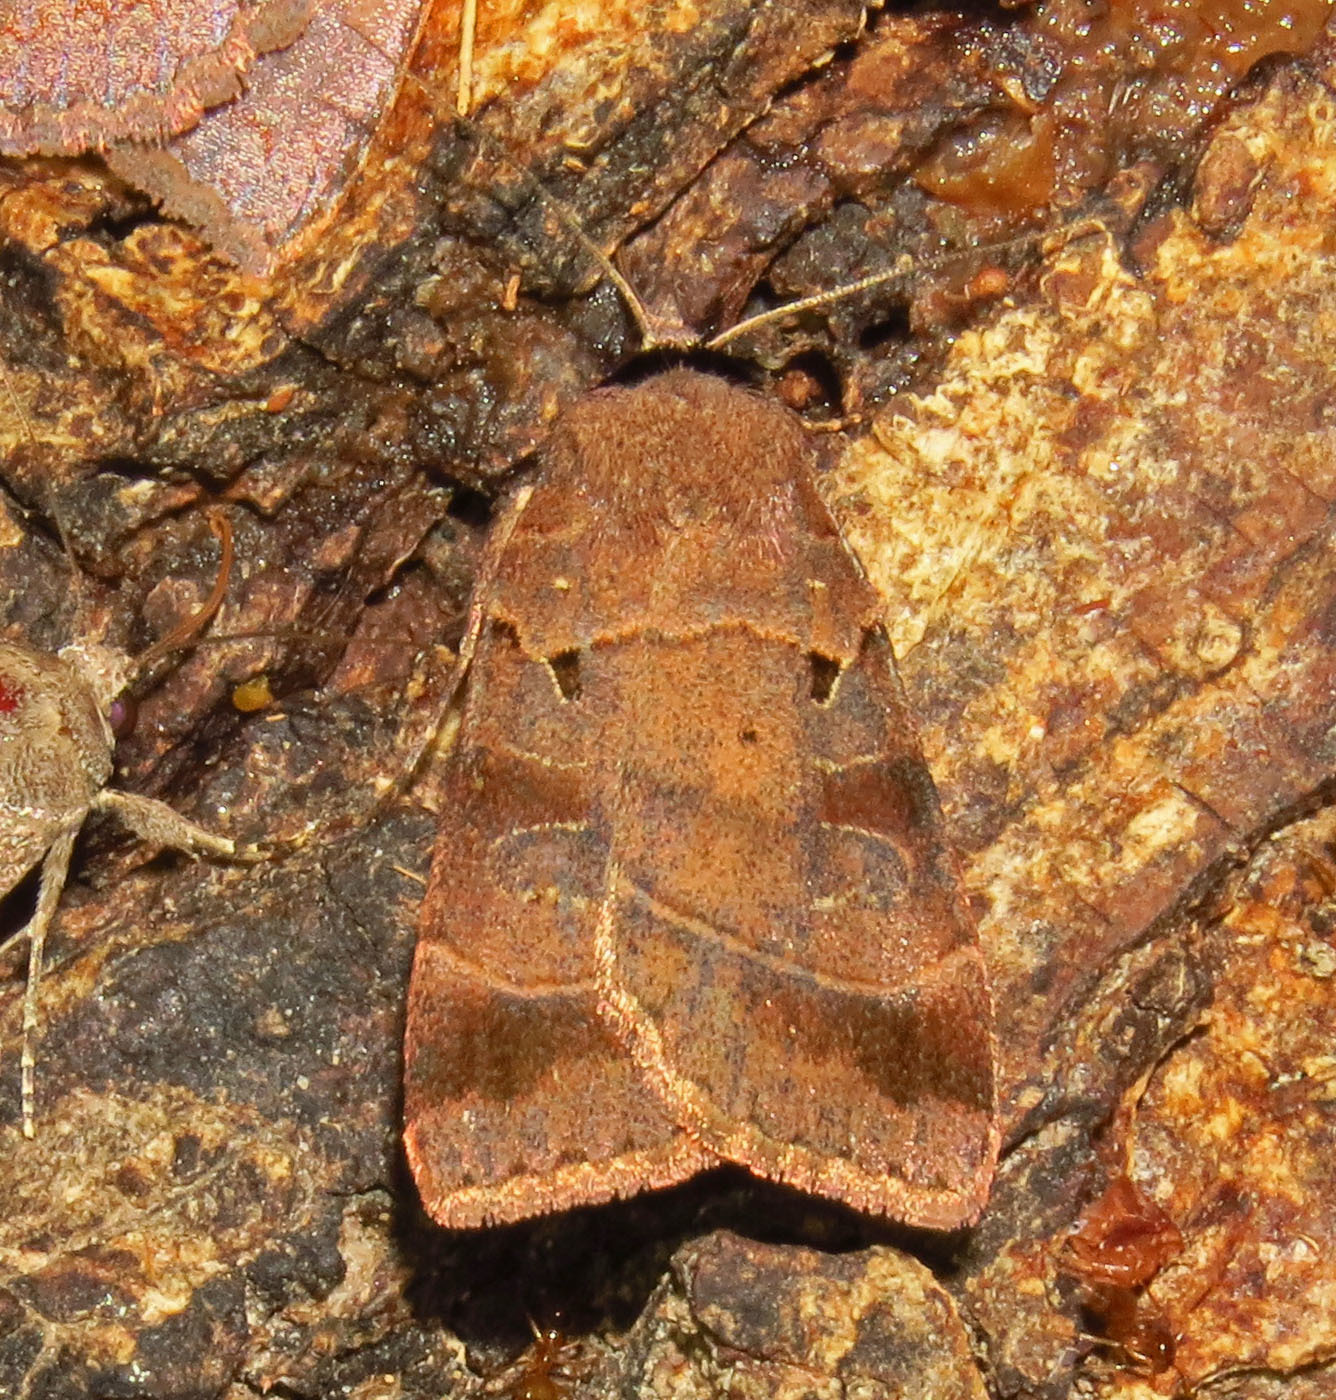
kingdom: Animalia
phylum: Arthropoda
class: Insecta
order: Lepidoptera
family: Noctuidae
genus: Agnorisma
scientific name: Agnorisma badinodis
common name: Pale-banded dart
